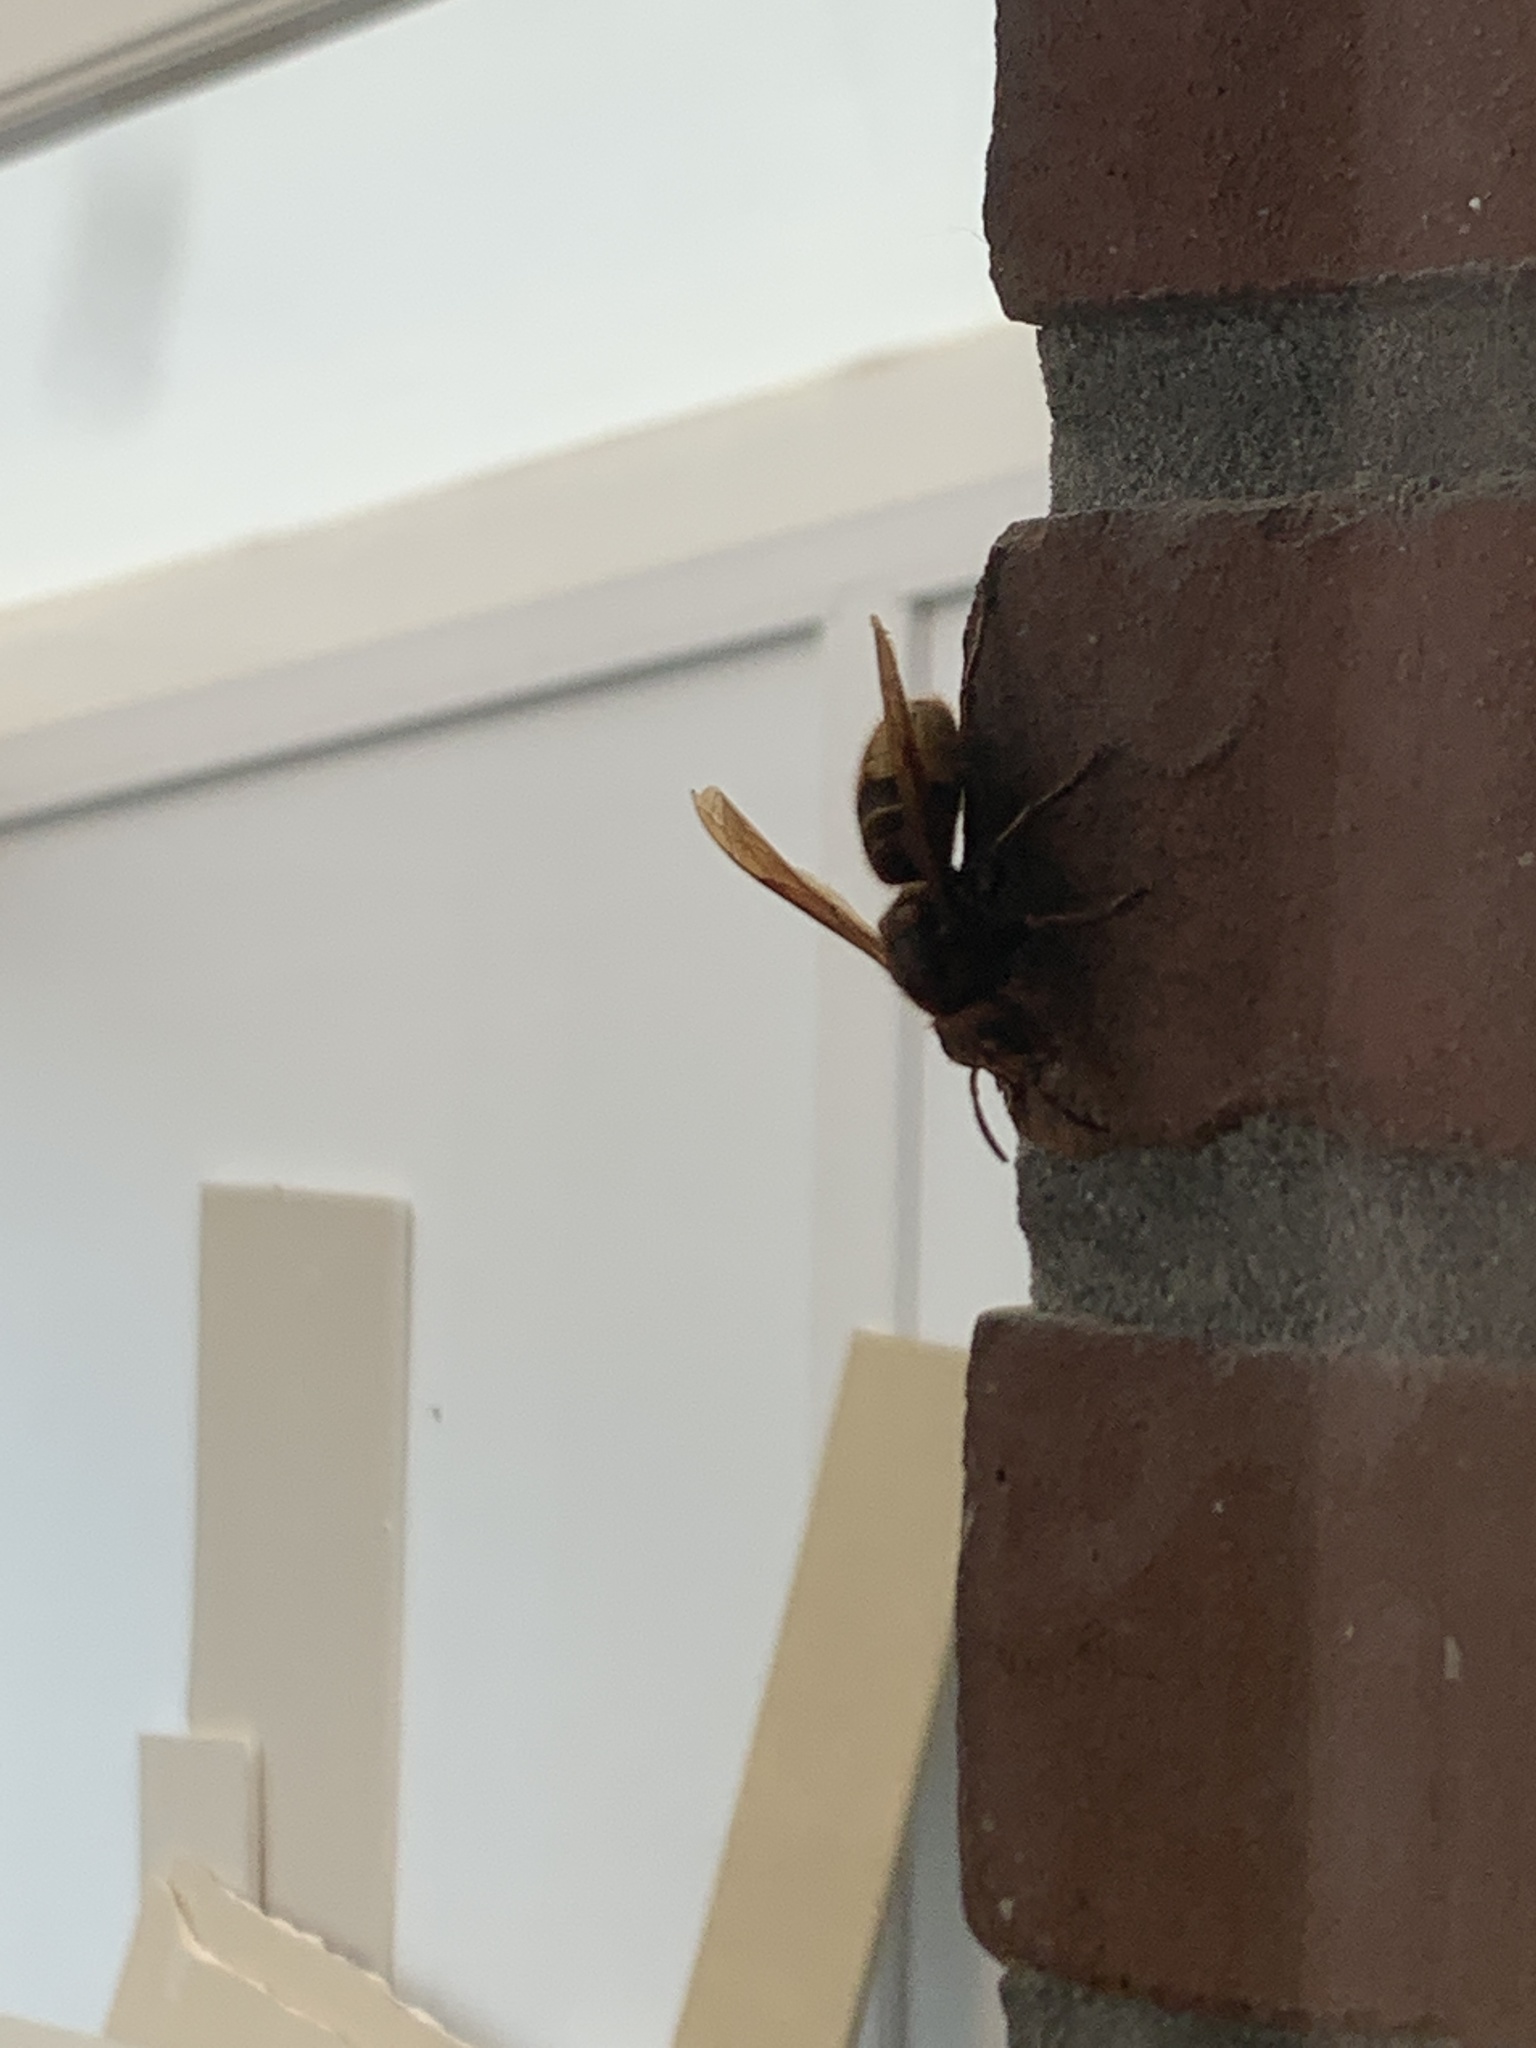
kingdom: Animalia
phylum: Arthropoda
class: Insecta
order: Hymenoptera
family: Vespidae
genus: Vespa
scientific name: Vespa crabro
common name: Hornet
